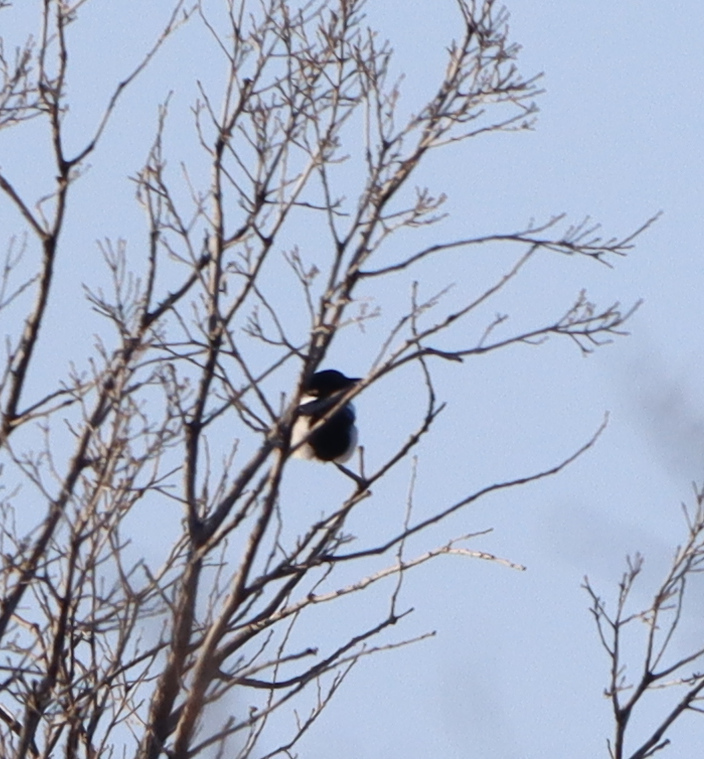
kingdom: Animalia
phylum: Chordata
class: Aves
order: Passeriformes
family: Corvidae
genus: Pica
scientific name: Pica hudsonia
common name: Black-billed magpie
